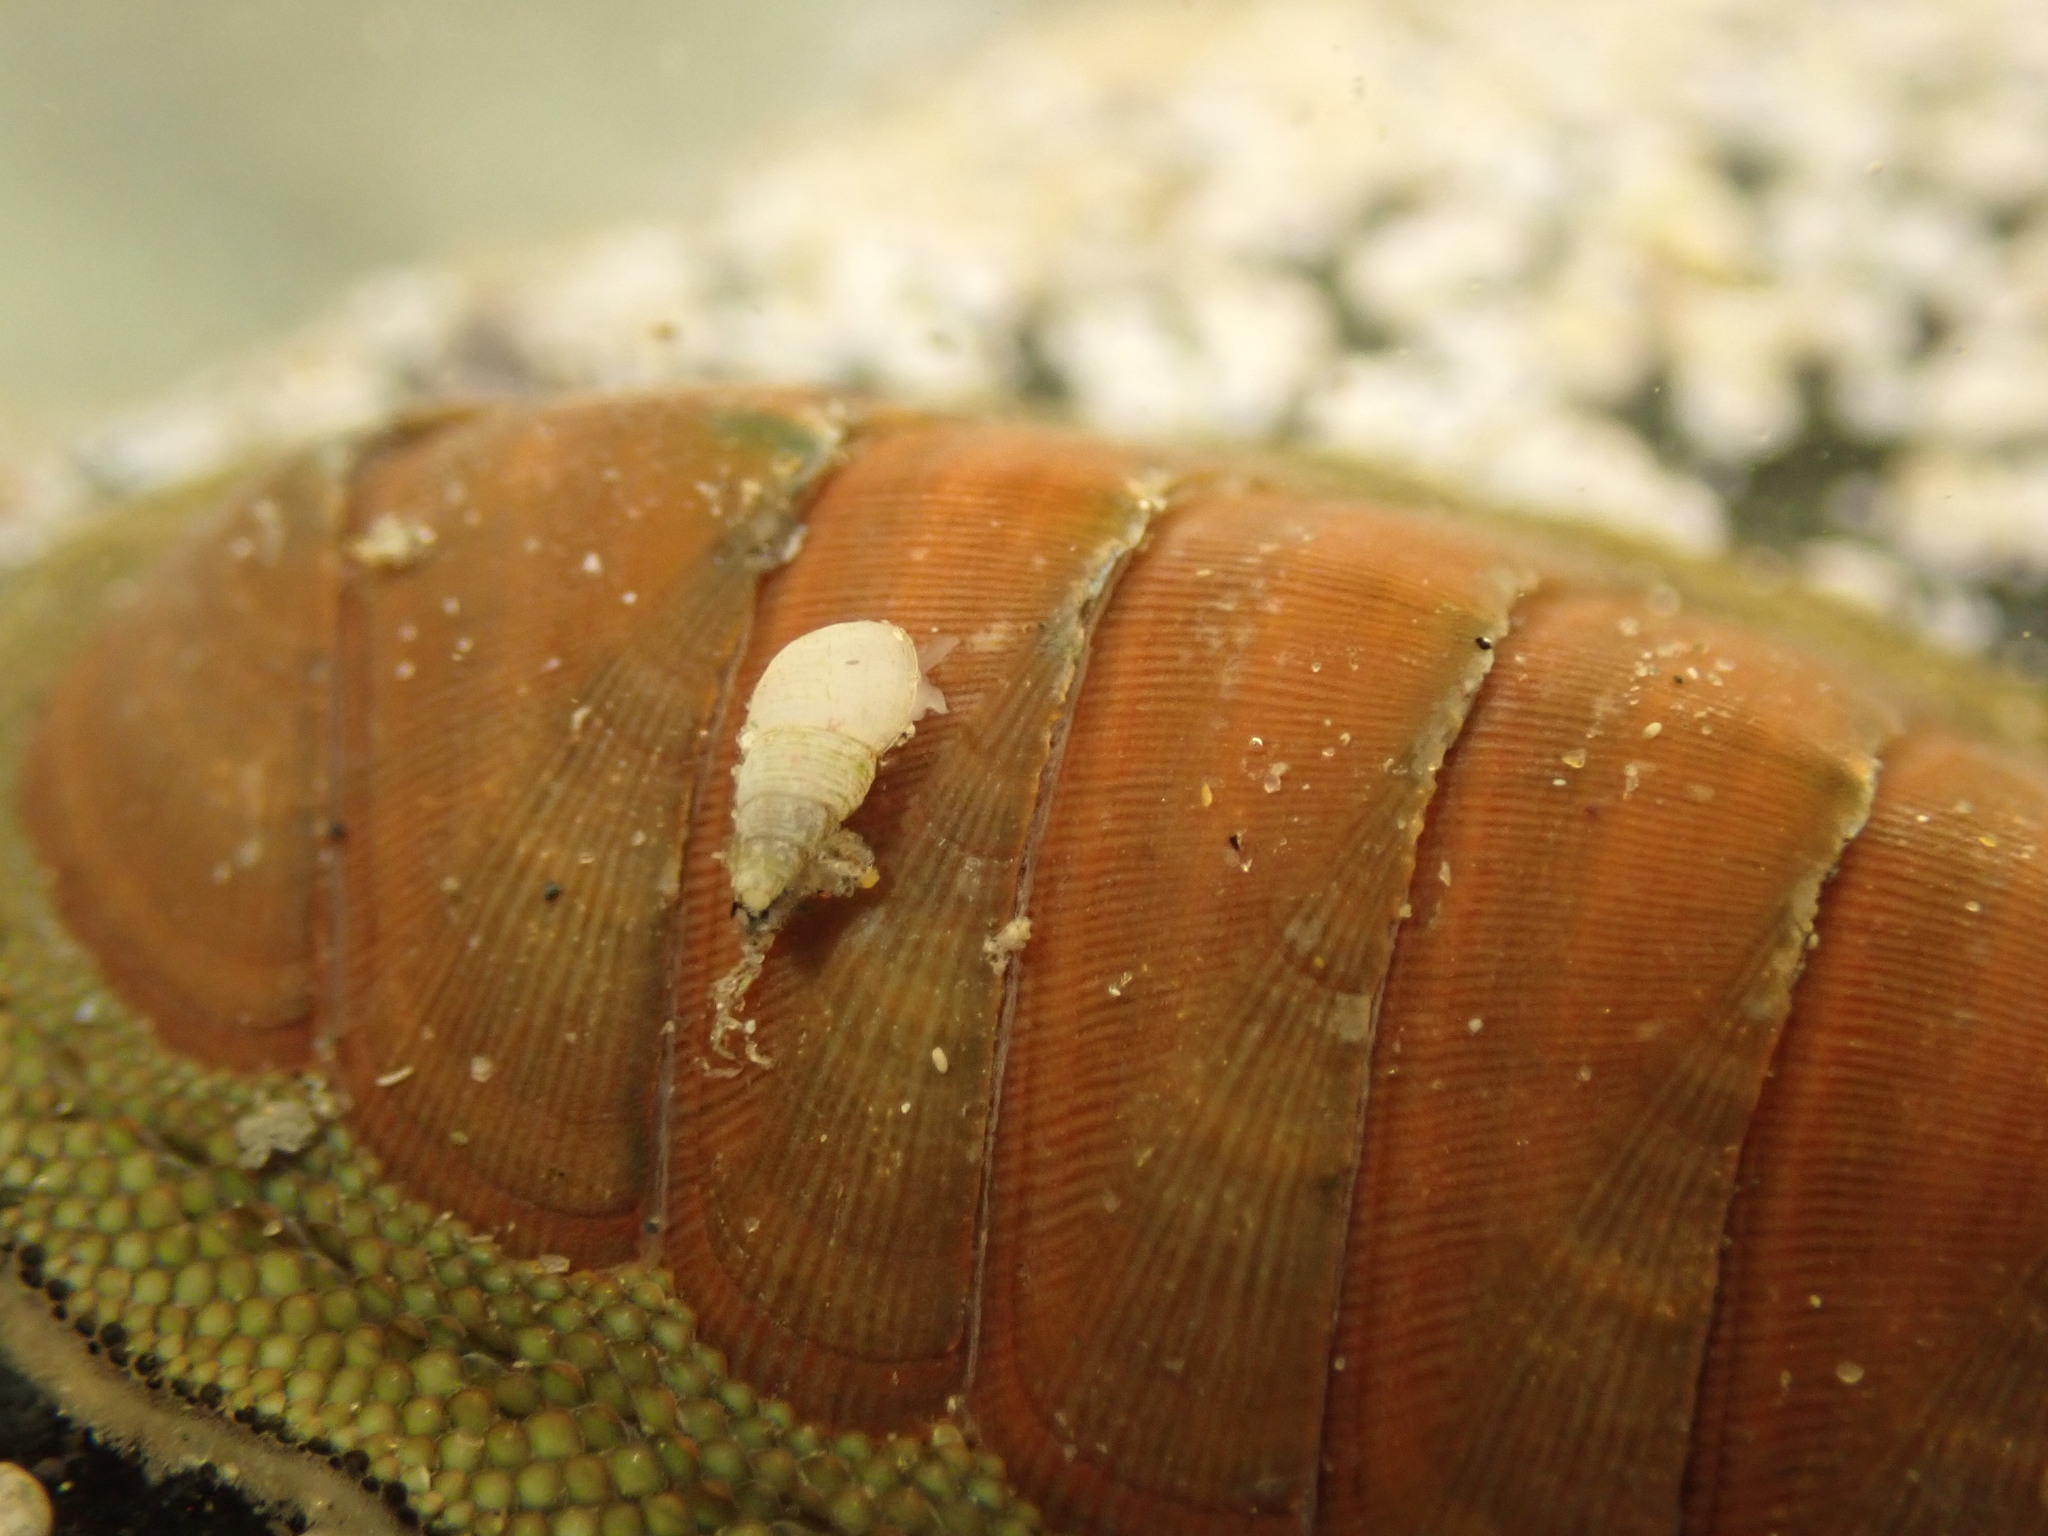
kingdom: Animalia
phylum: Mollusca
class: Polyplacophora
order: Chitonida
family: Chitonidae
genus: Chiton
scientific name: Chiton glaucus
